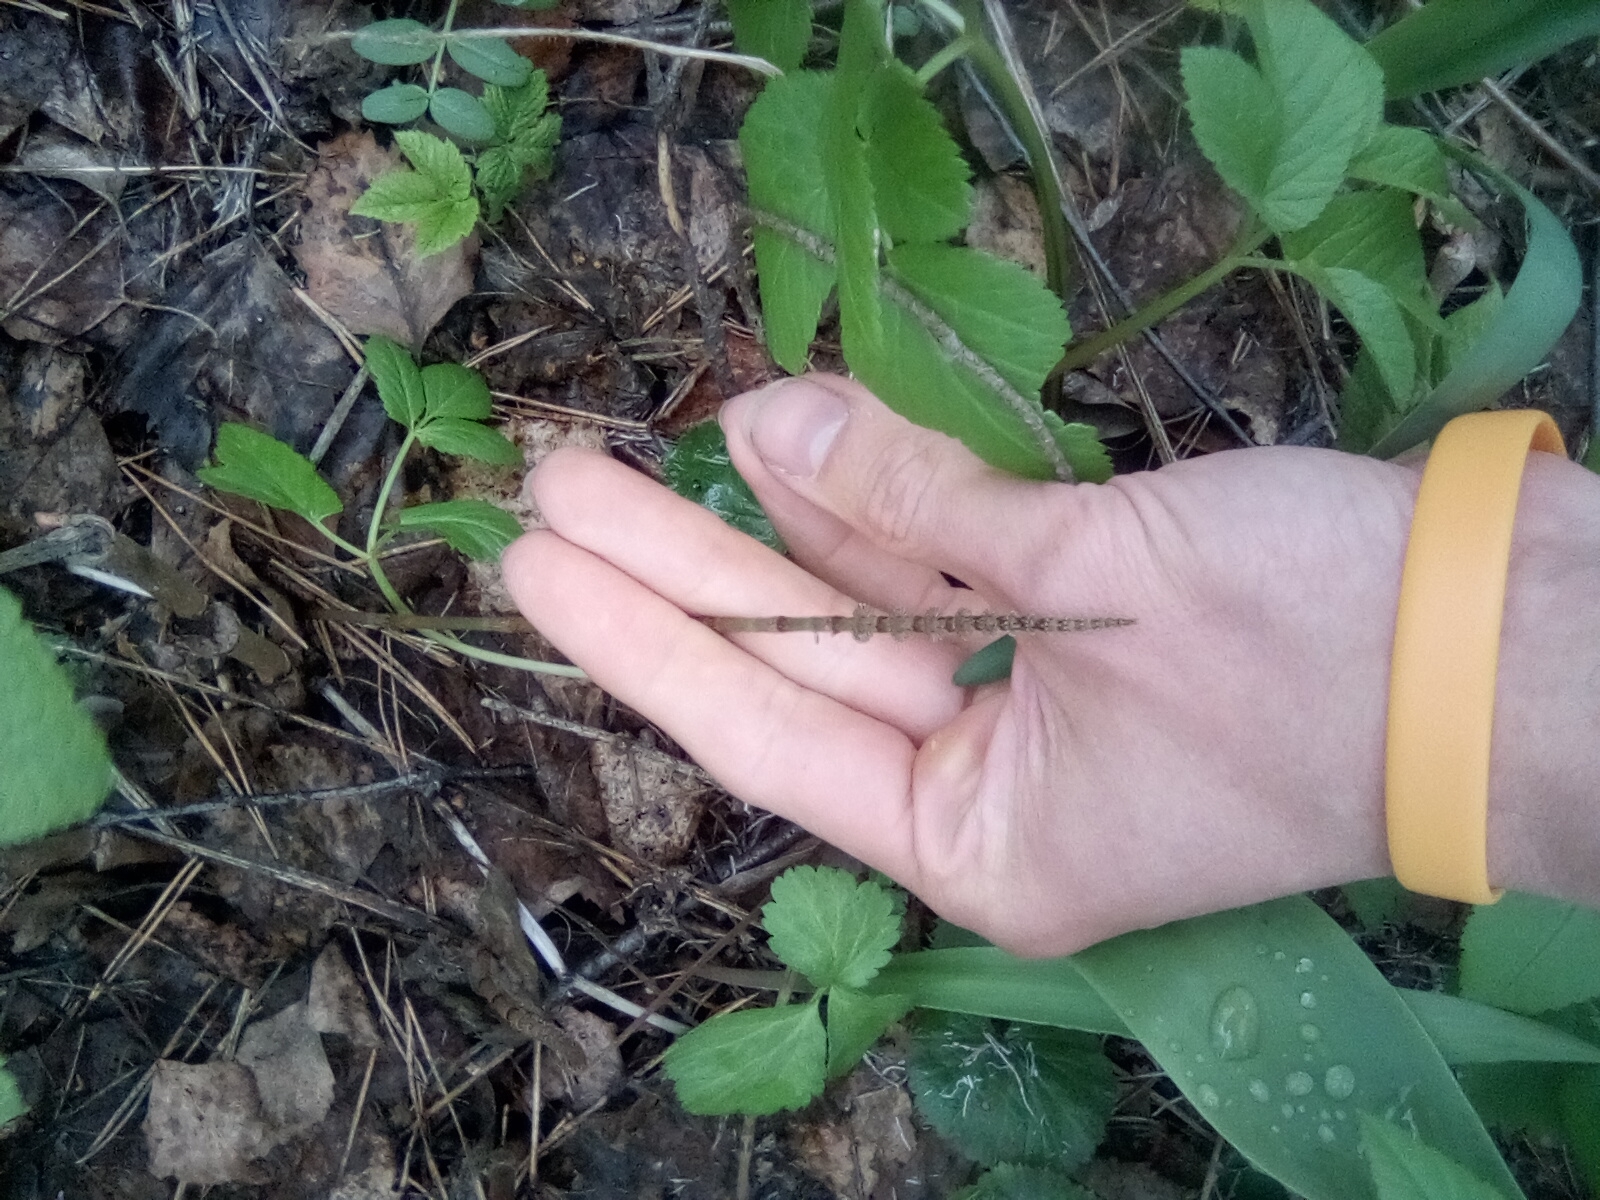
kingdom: Plantae
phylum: Tracheophyta
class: Polypodiopsida
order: Equisetales
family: Equisetaceae
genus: Equisetum
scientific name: Equisetum pratense
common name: Meadow horsetail
